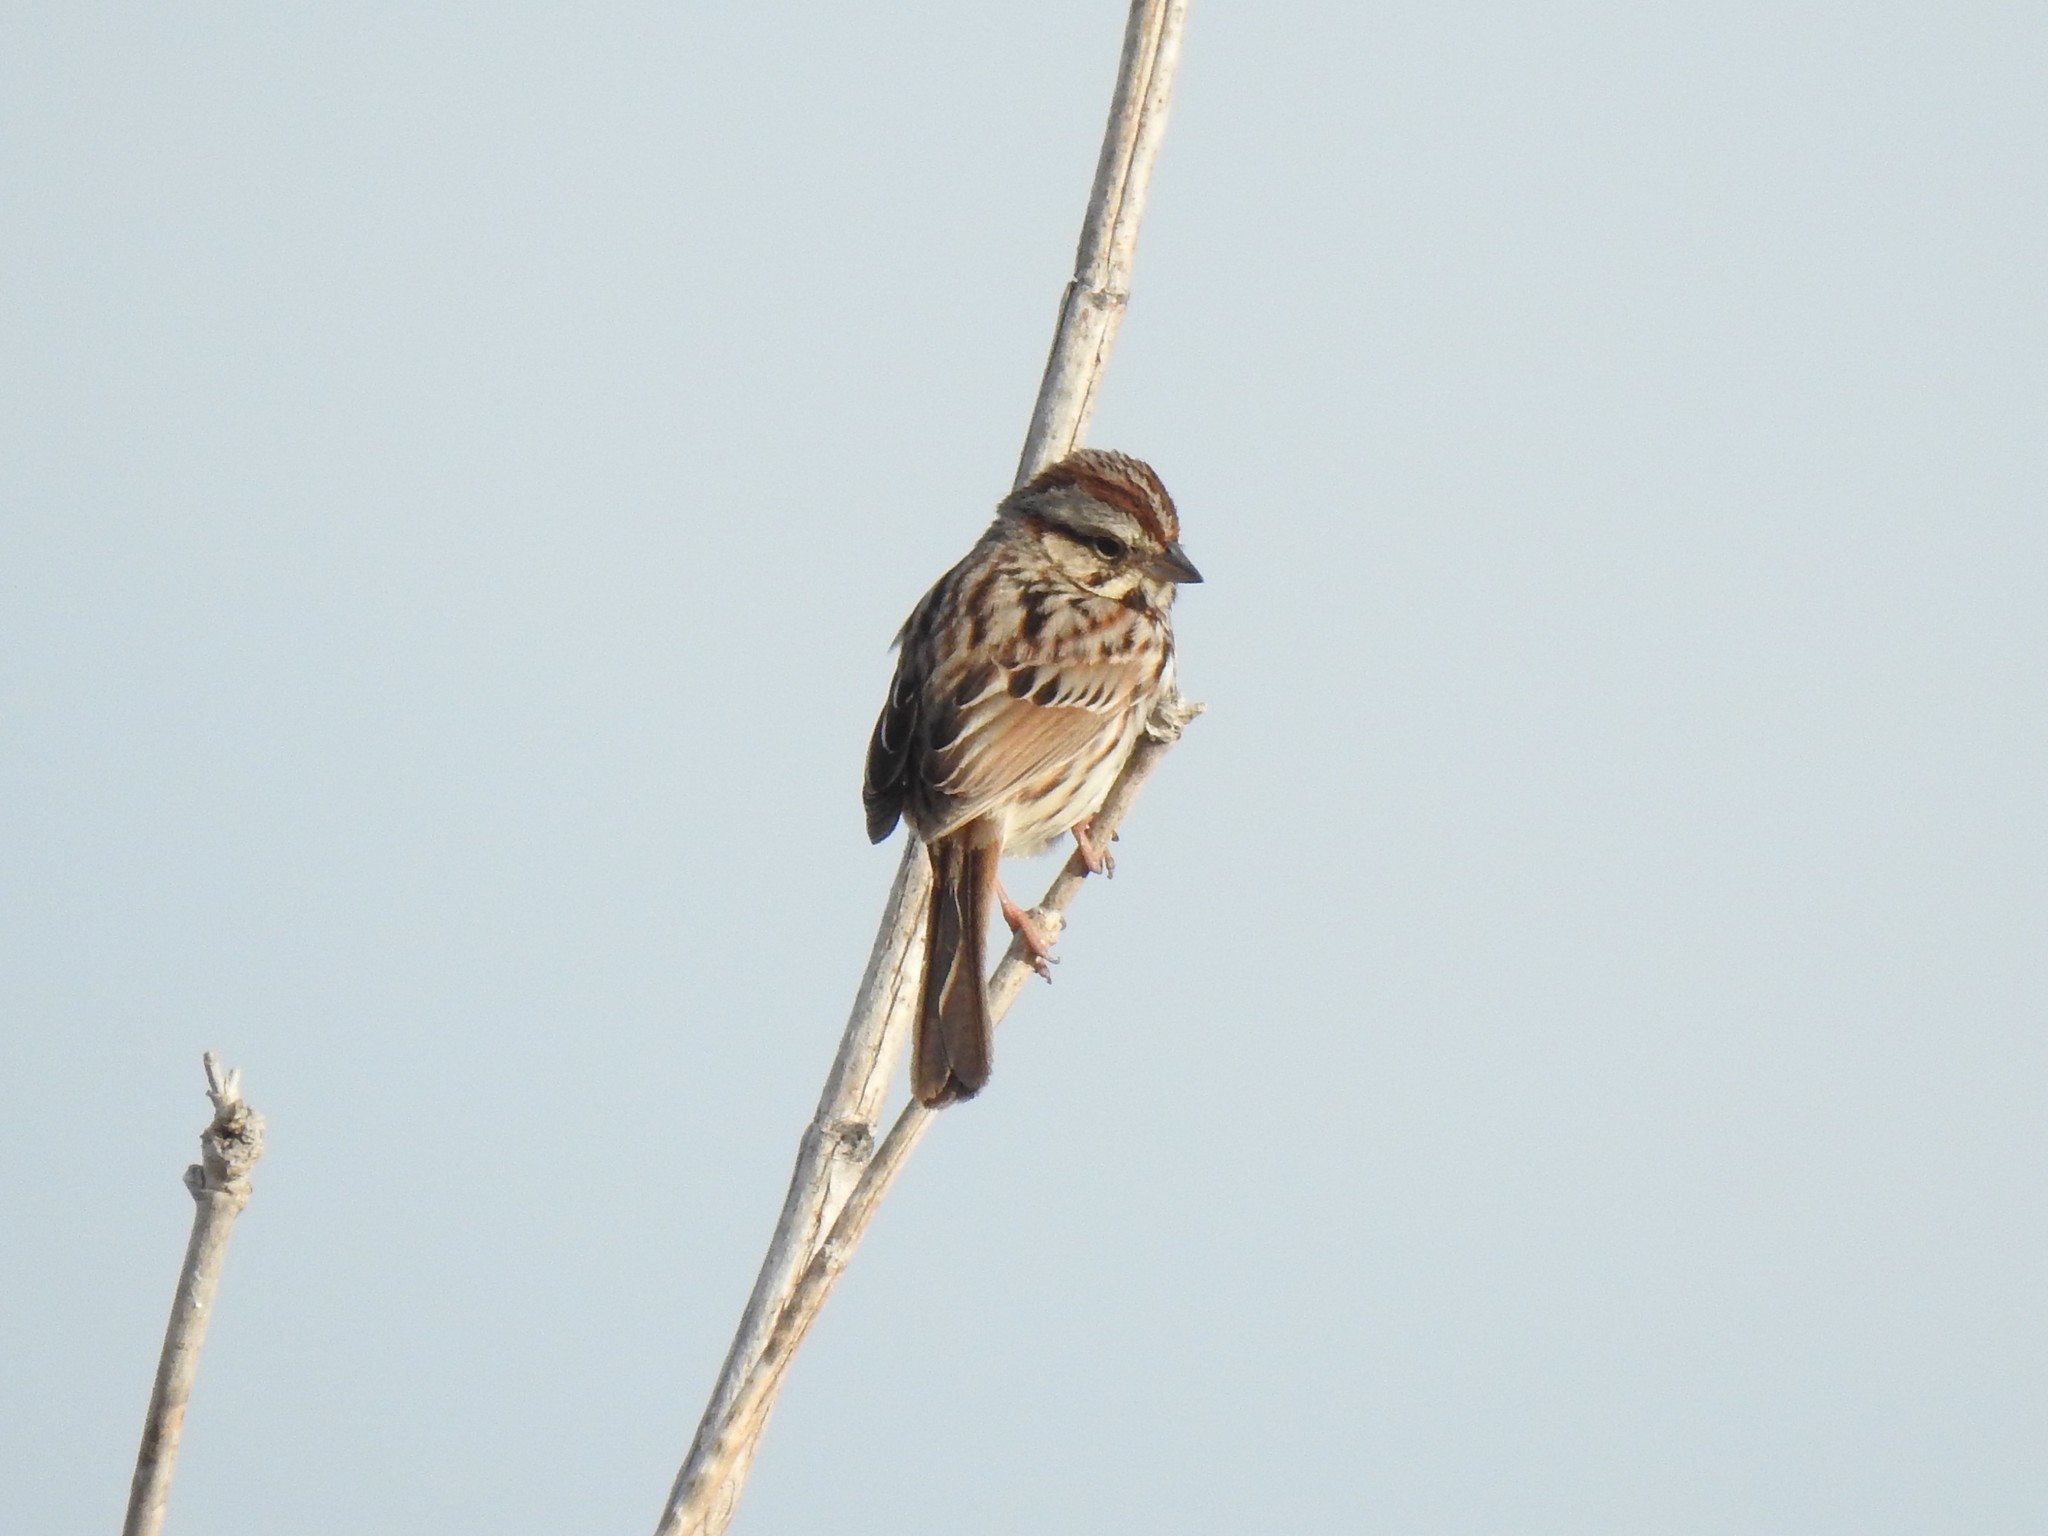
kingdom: Animalia
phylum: Chordata
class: Aves
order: Passeriformes
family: Passerellidae
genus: Melospiza
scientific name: Melospiza melodia
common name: Song sparrow
